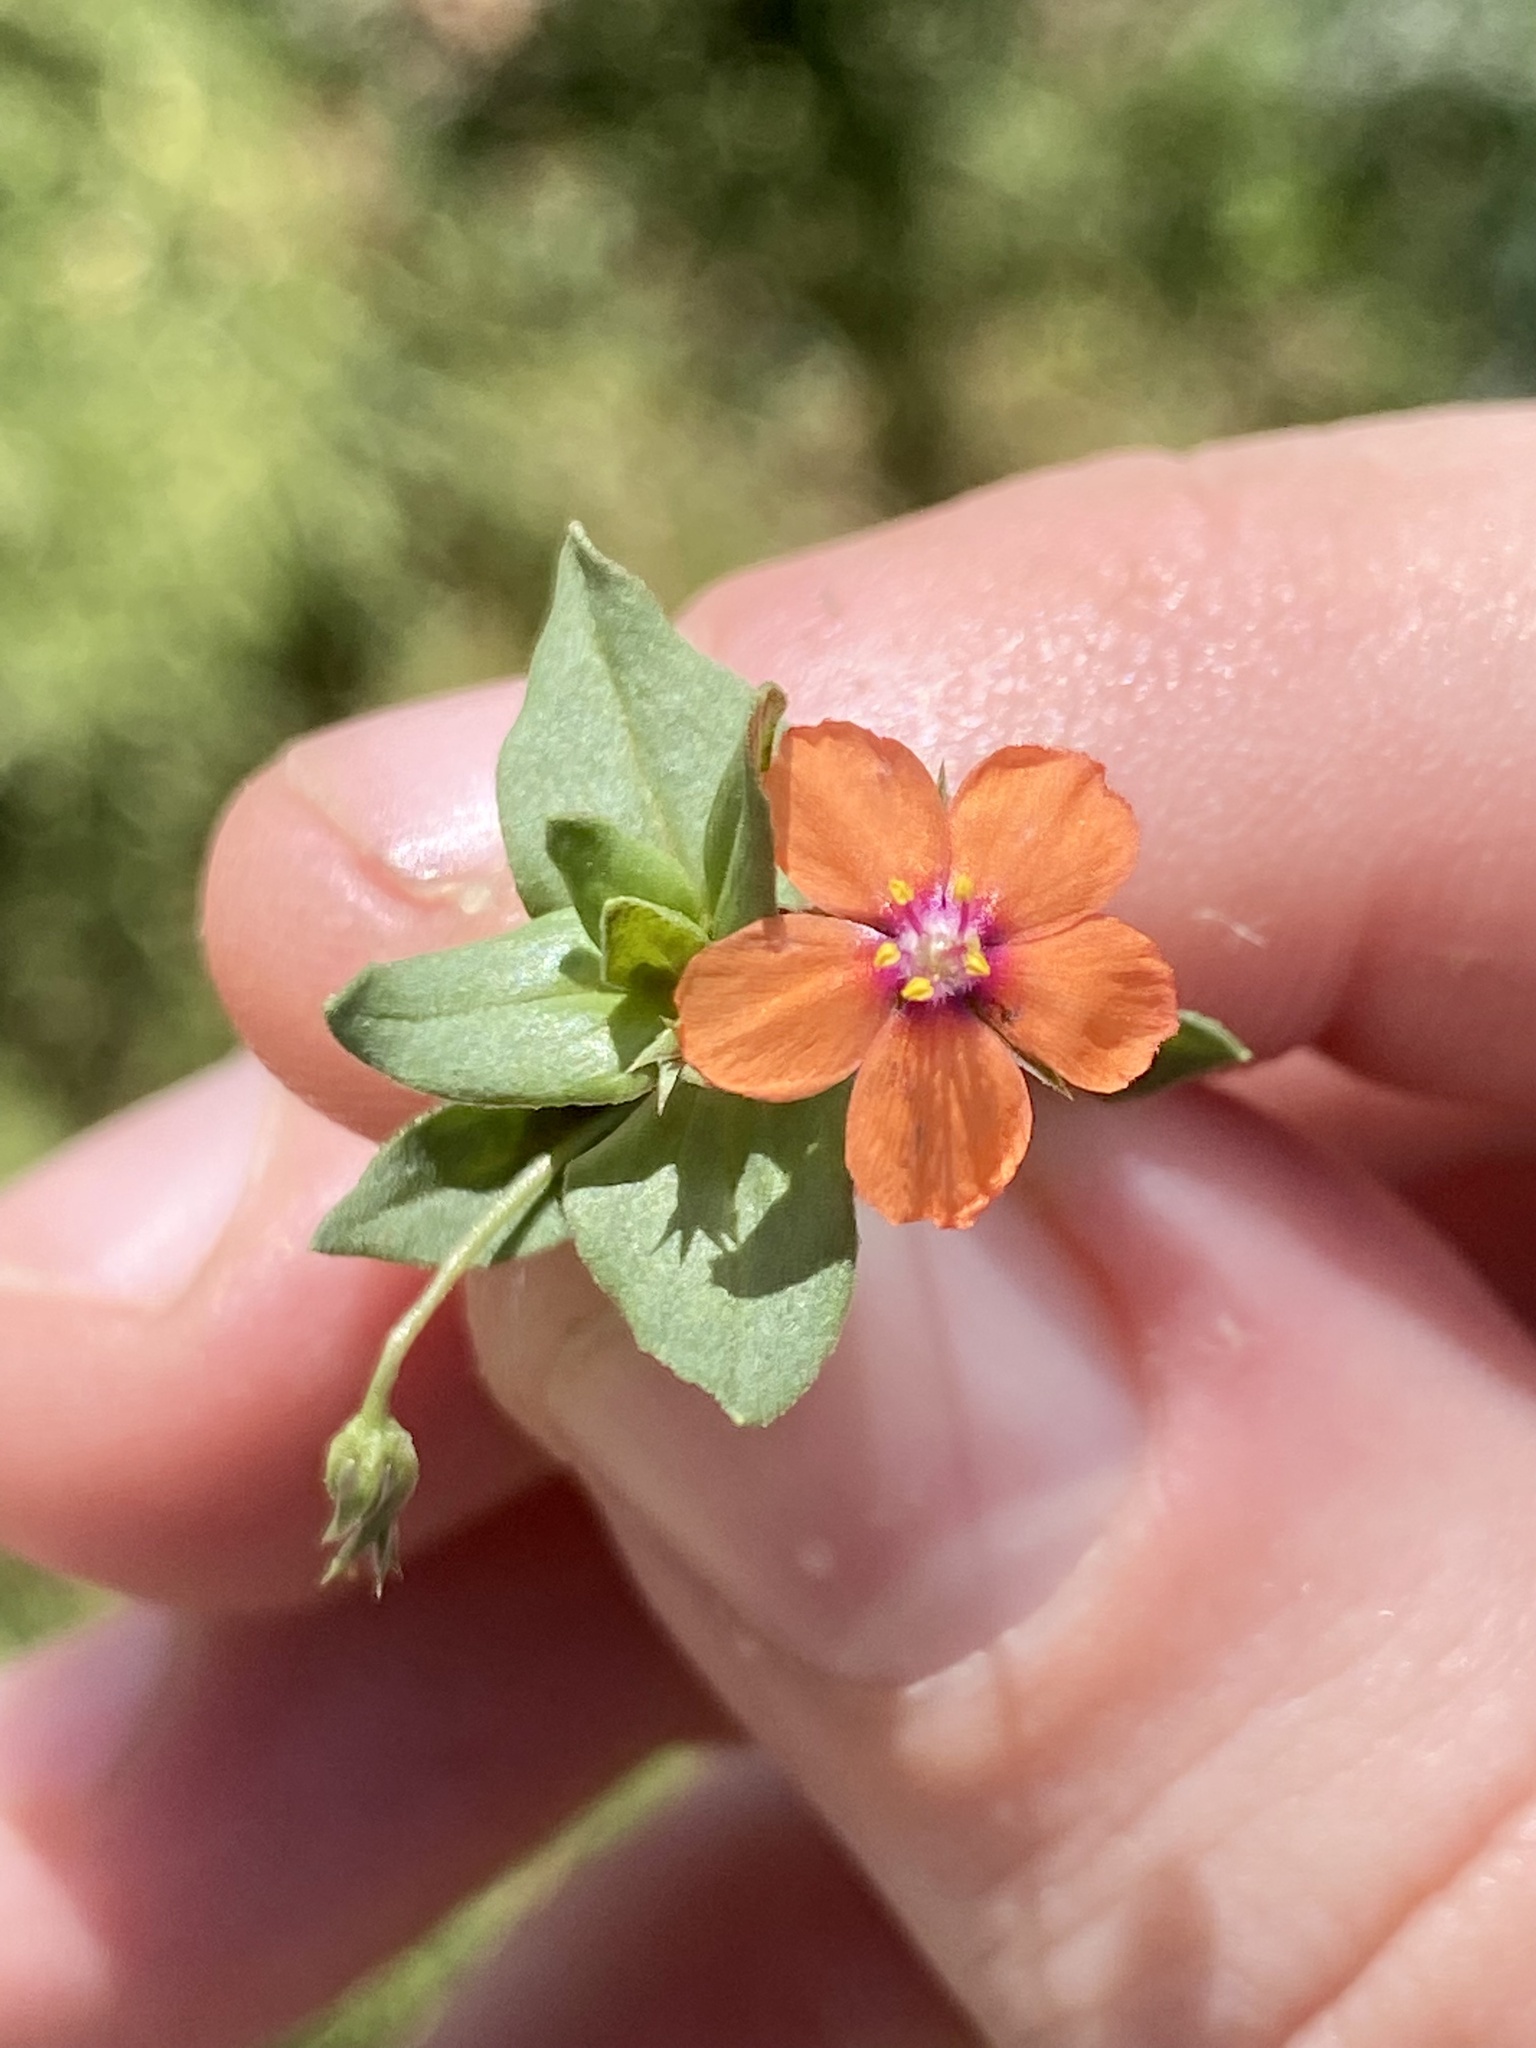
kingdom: Plantae
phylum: Tracheophyta
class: Magnoliopsida
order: Ericales
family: Primulaceae
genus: Lysimachia
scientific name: Lysimachia arvensis
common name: Scarlet pimpernel
